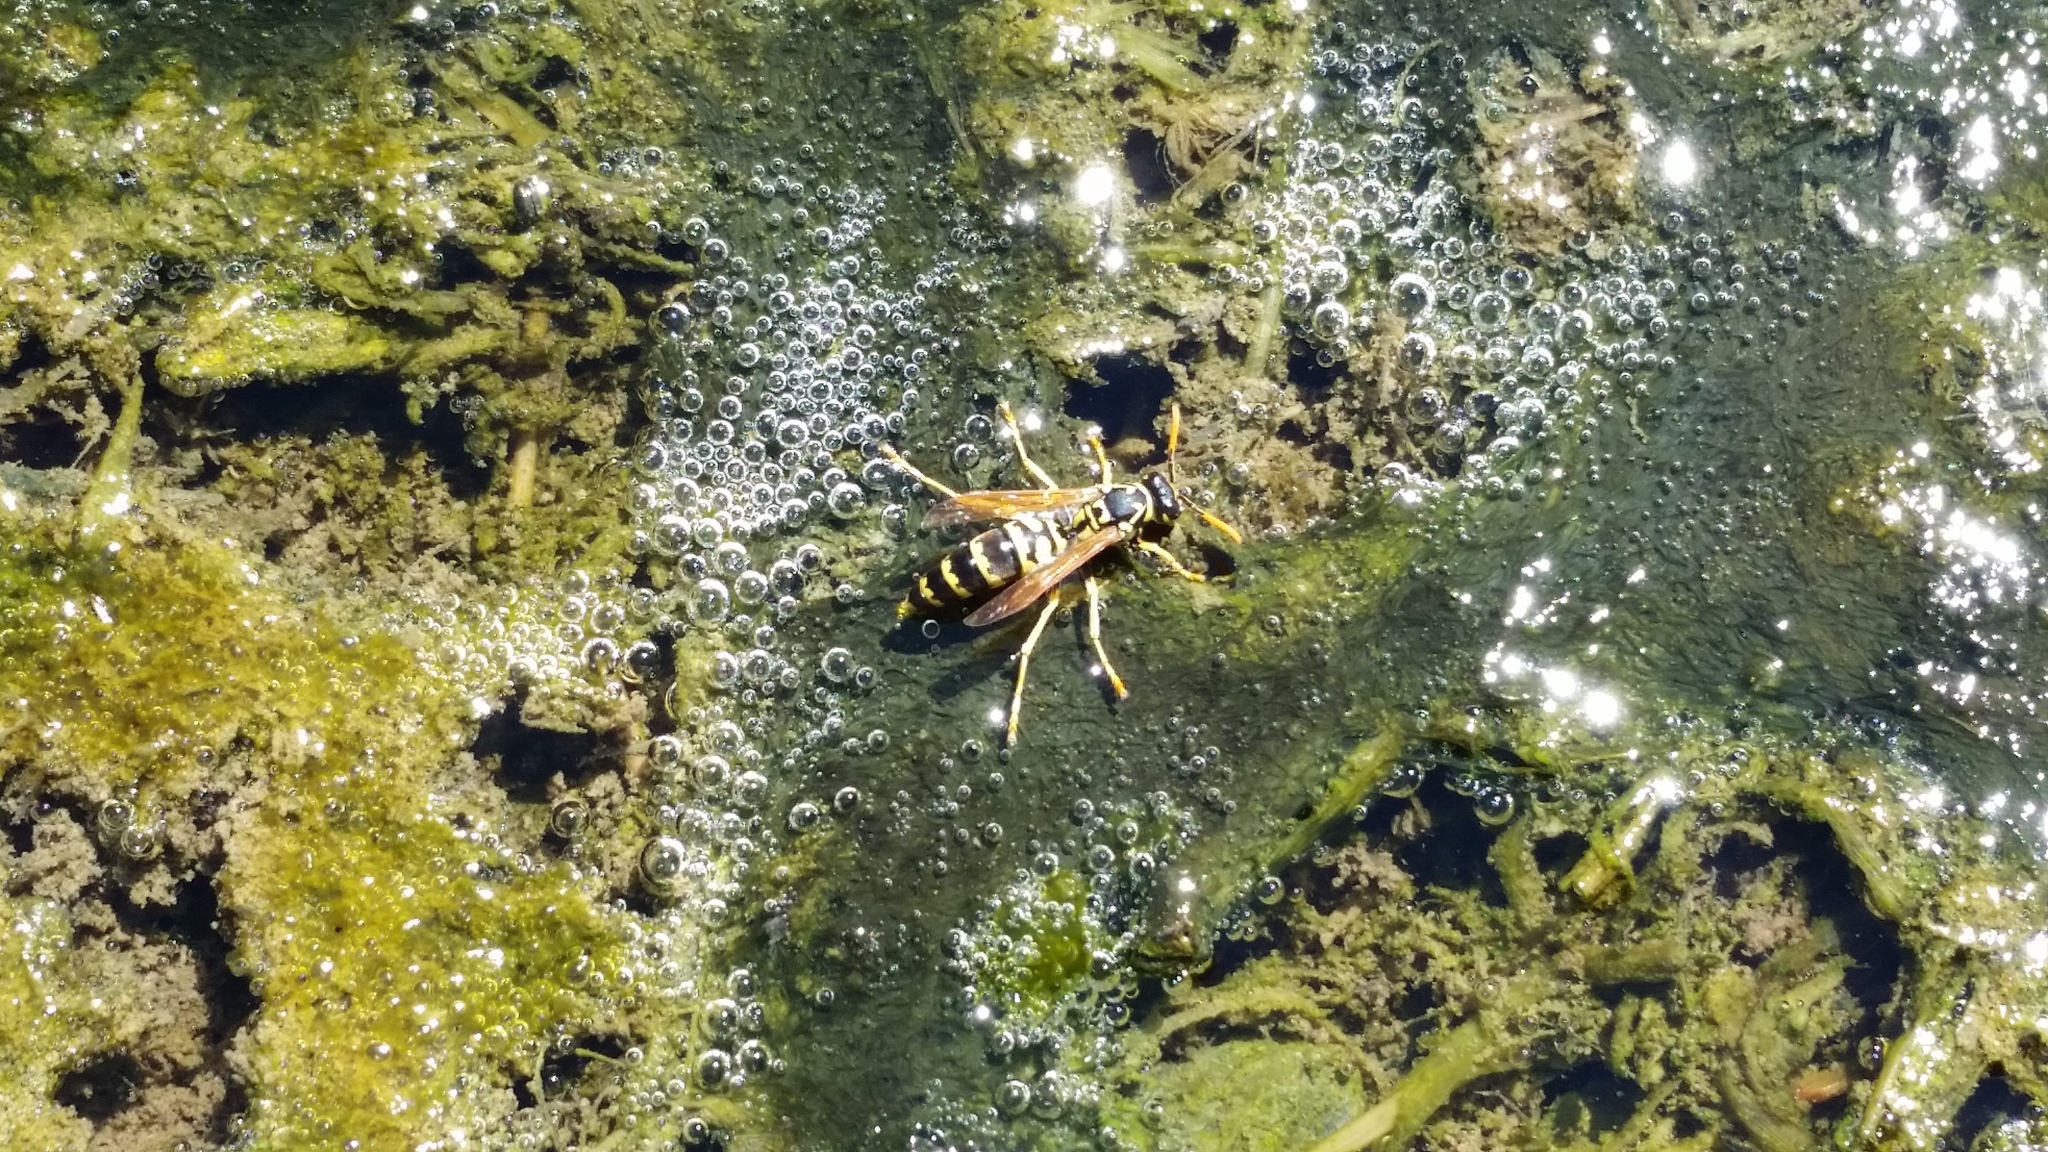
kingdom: Animalia
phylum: Arthropoda
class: Insecta
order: Hymenoptera
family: Eumenidae
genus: Polistes
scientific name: Polistes dominula
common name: Paper wasp
